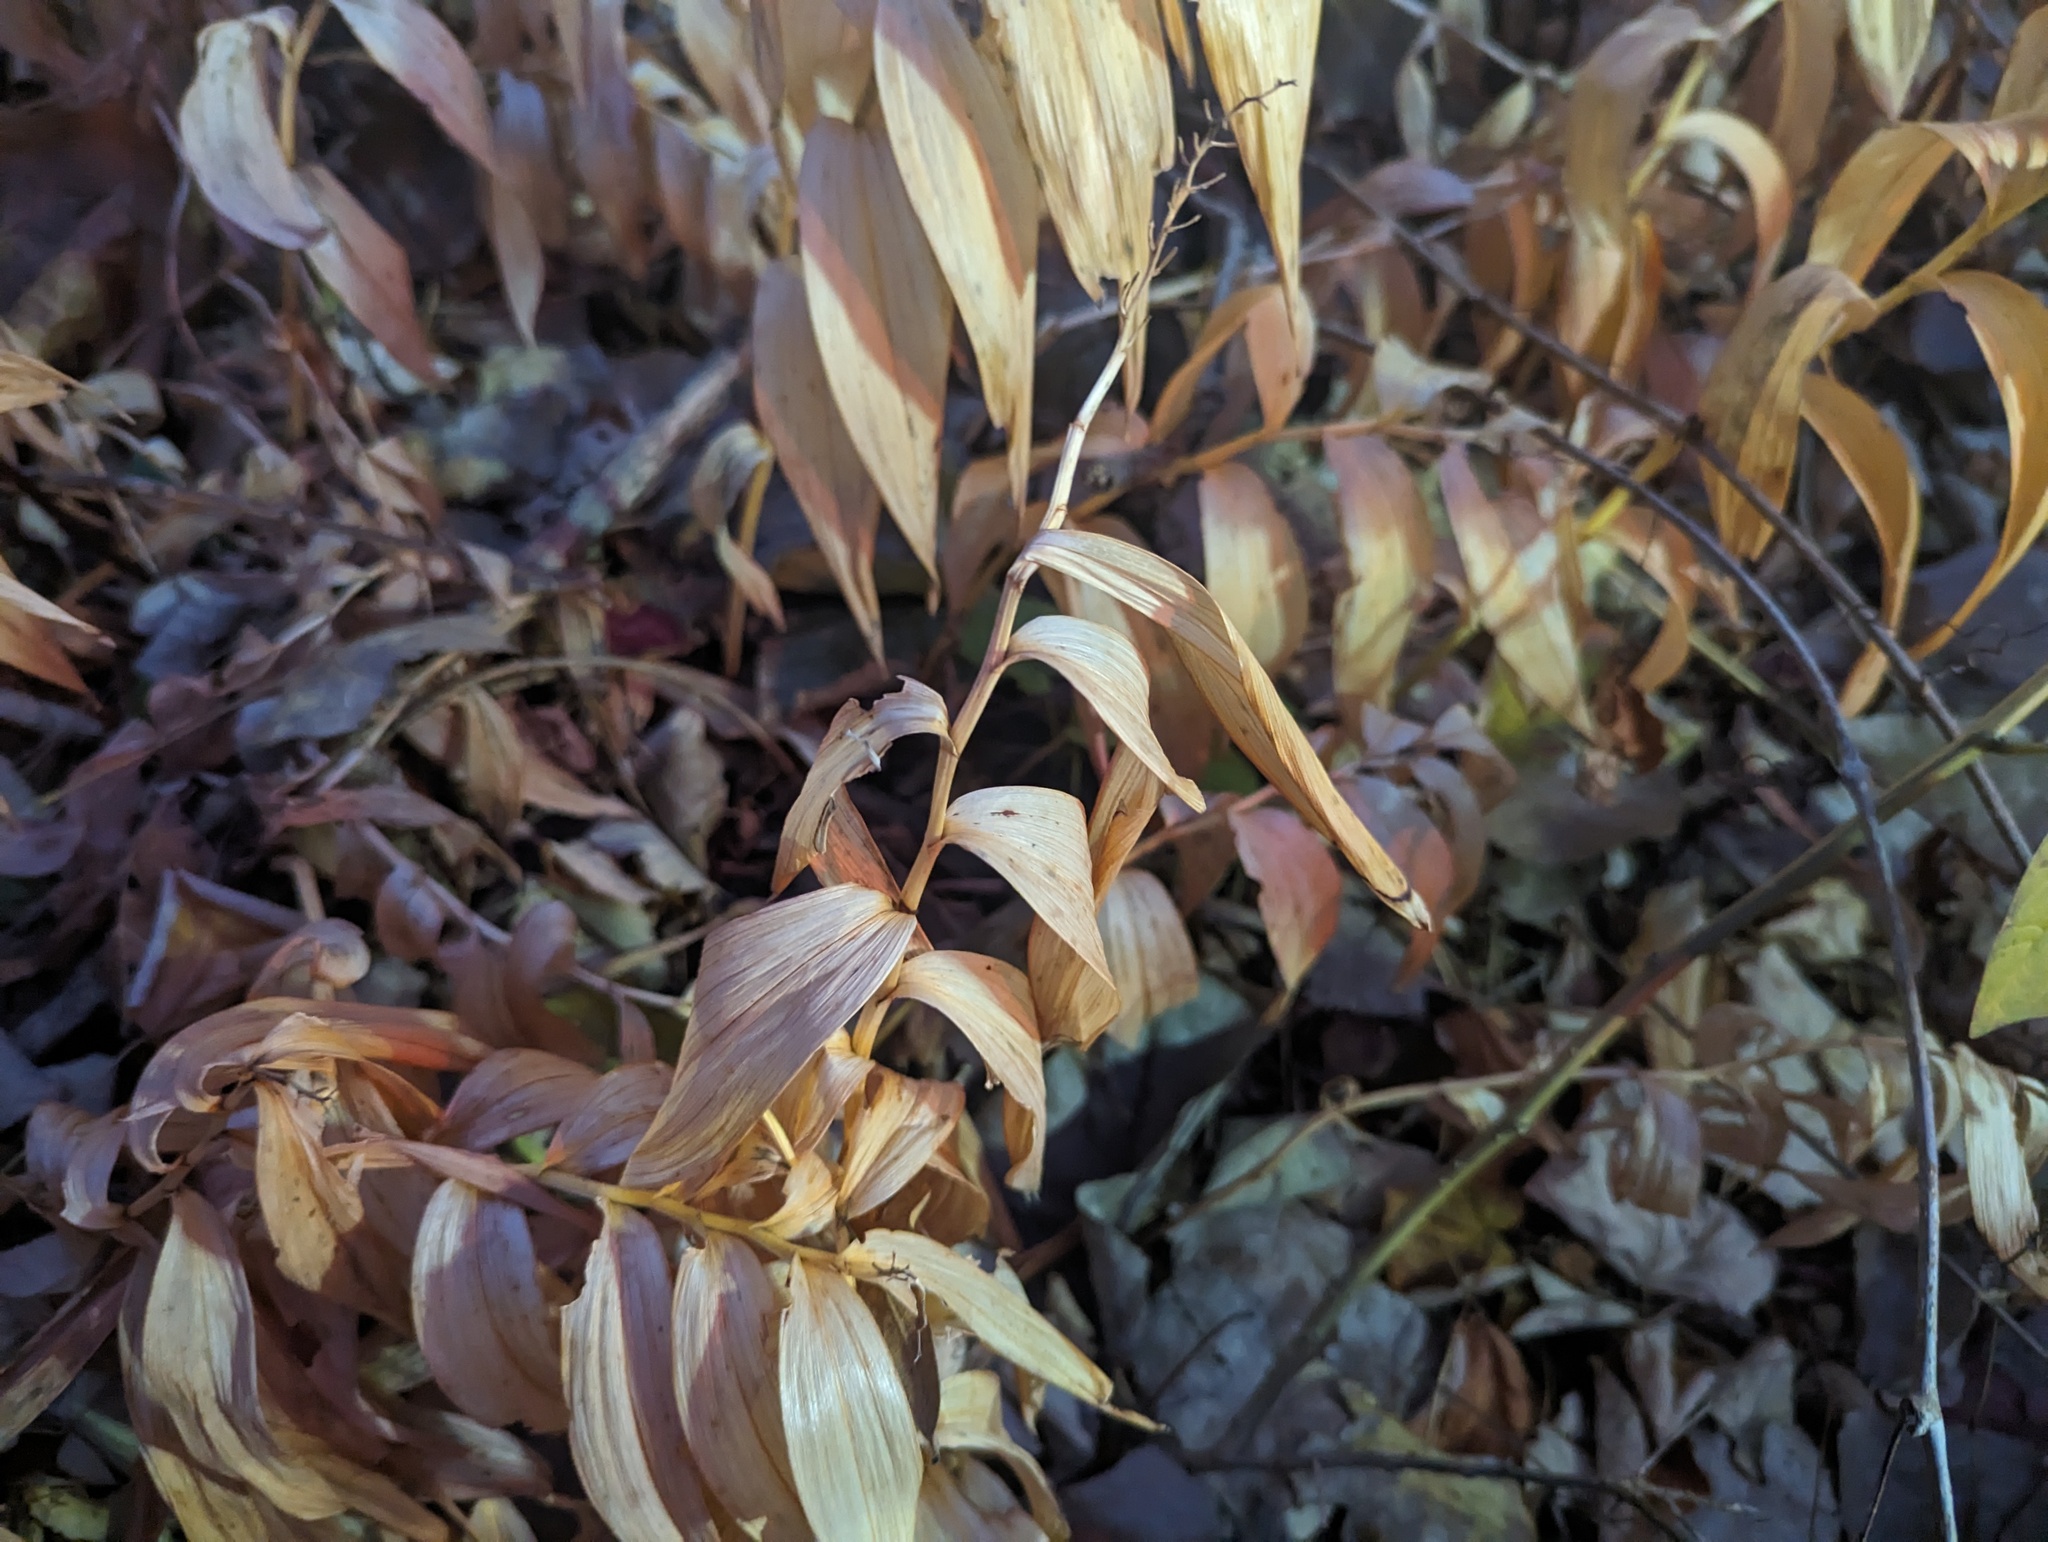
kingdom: Plantae
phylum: Tracheophyta
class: Liliopsida
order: Asparagales
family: Asparagaceae
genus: Maianthemum
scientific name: Maianthemum stellatum
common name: Little false solomon's seal
